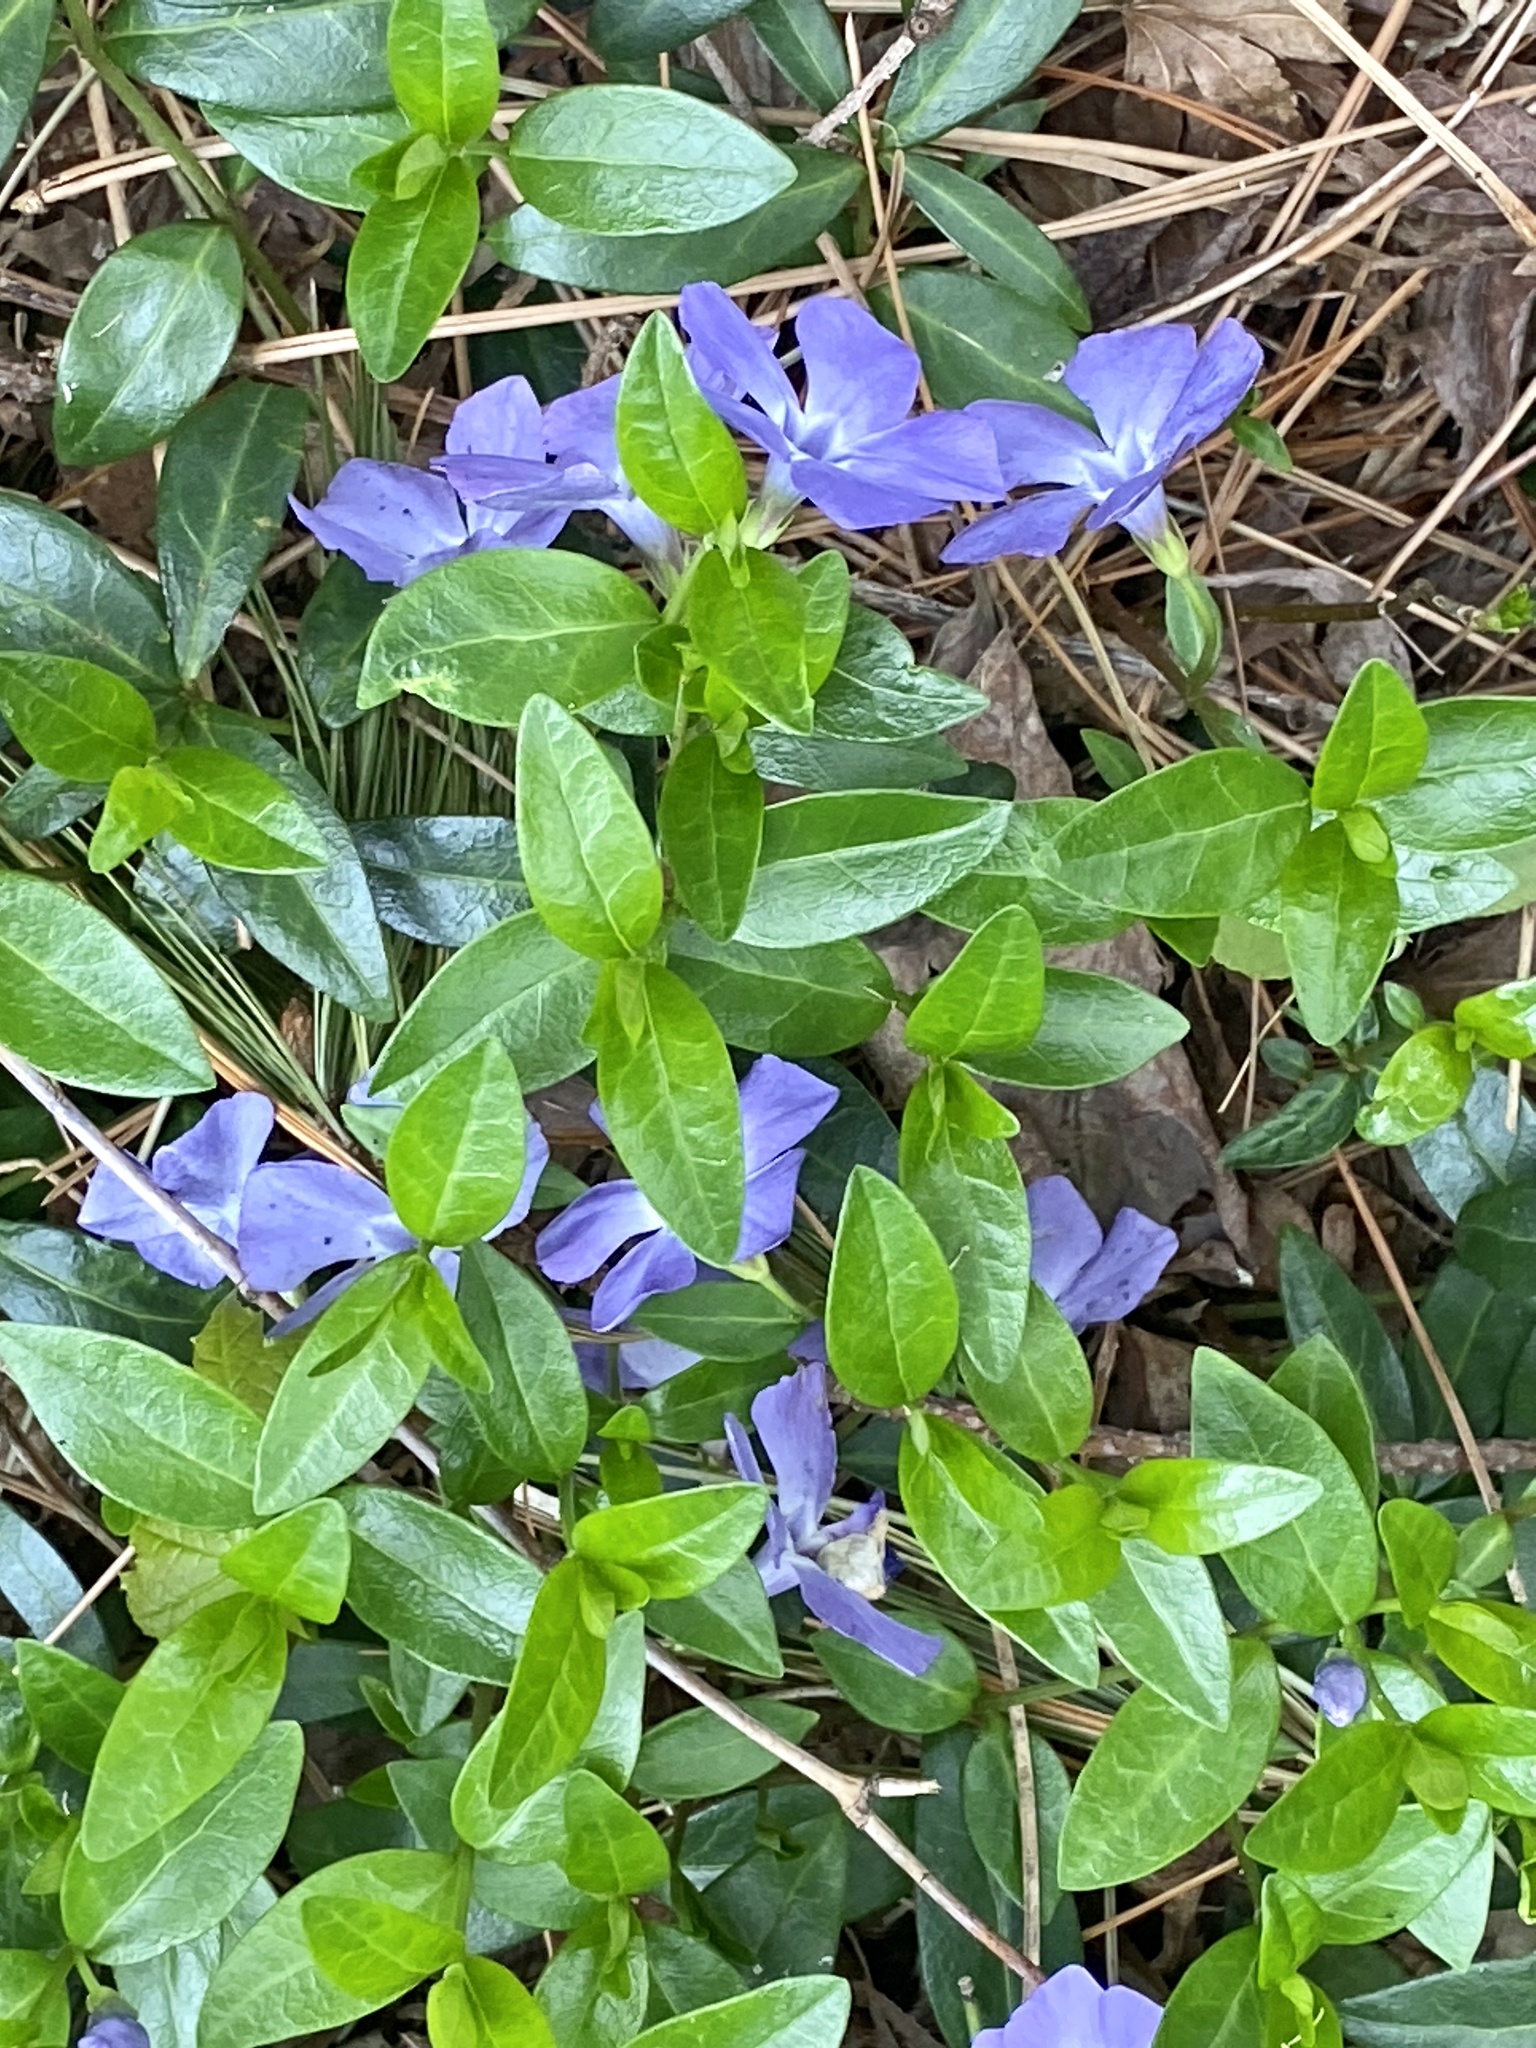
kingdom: Plantae
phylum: Tracheophyta
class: Magnoliopsida
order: Gentianales
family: Apocynaceae
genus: Vinca
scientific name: Vinca minor
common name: Lesser periwinkle
